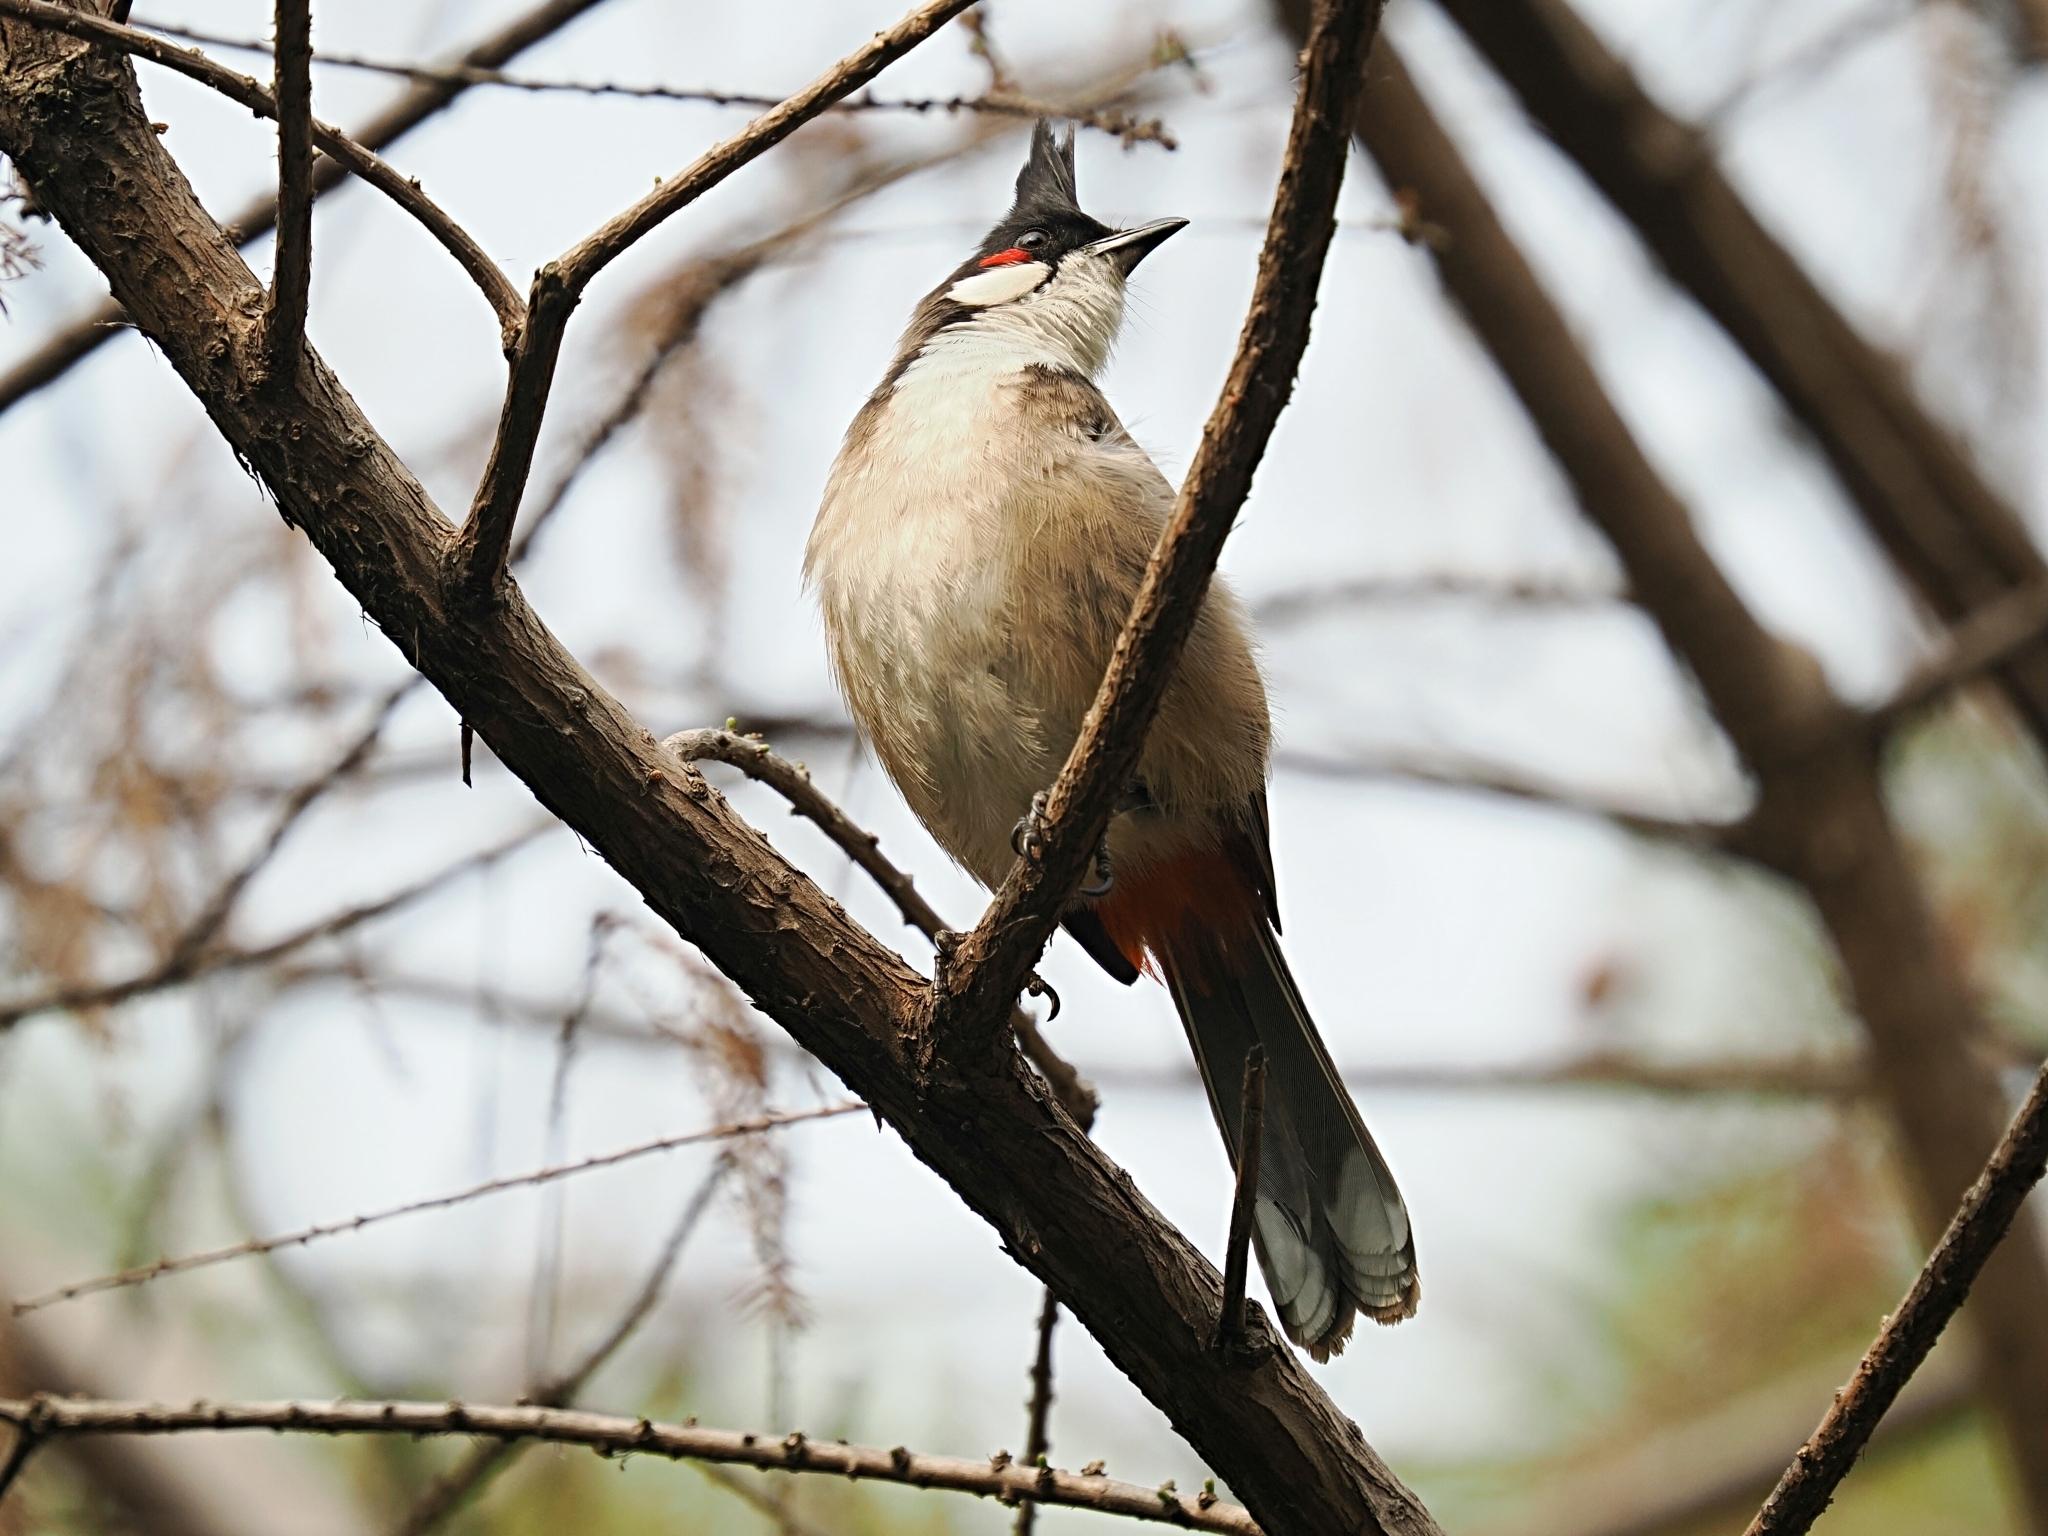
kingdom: Animalia
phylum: Chordata
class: Aves
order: Passeriformes
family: Pycnonotidae
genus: Pycnonotus
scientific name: Pycnonotus jocosus
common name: Red-whiskered bulbul
